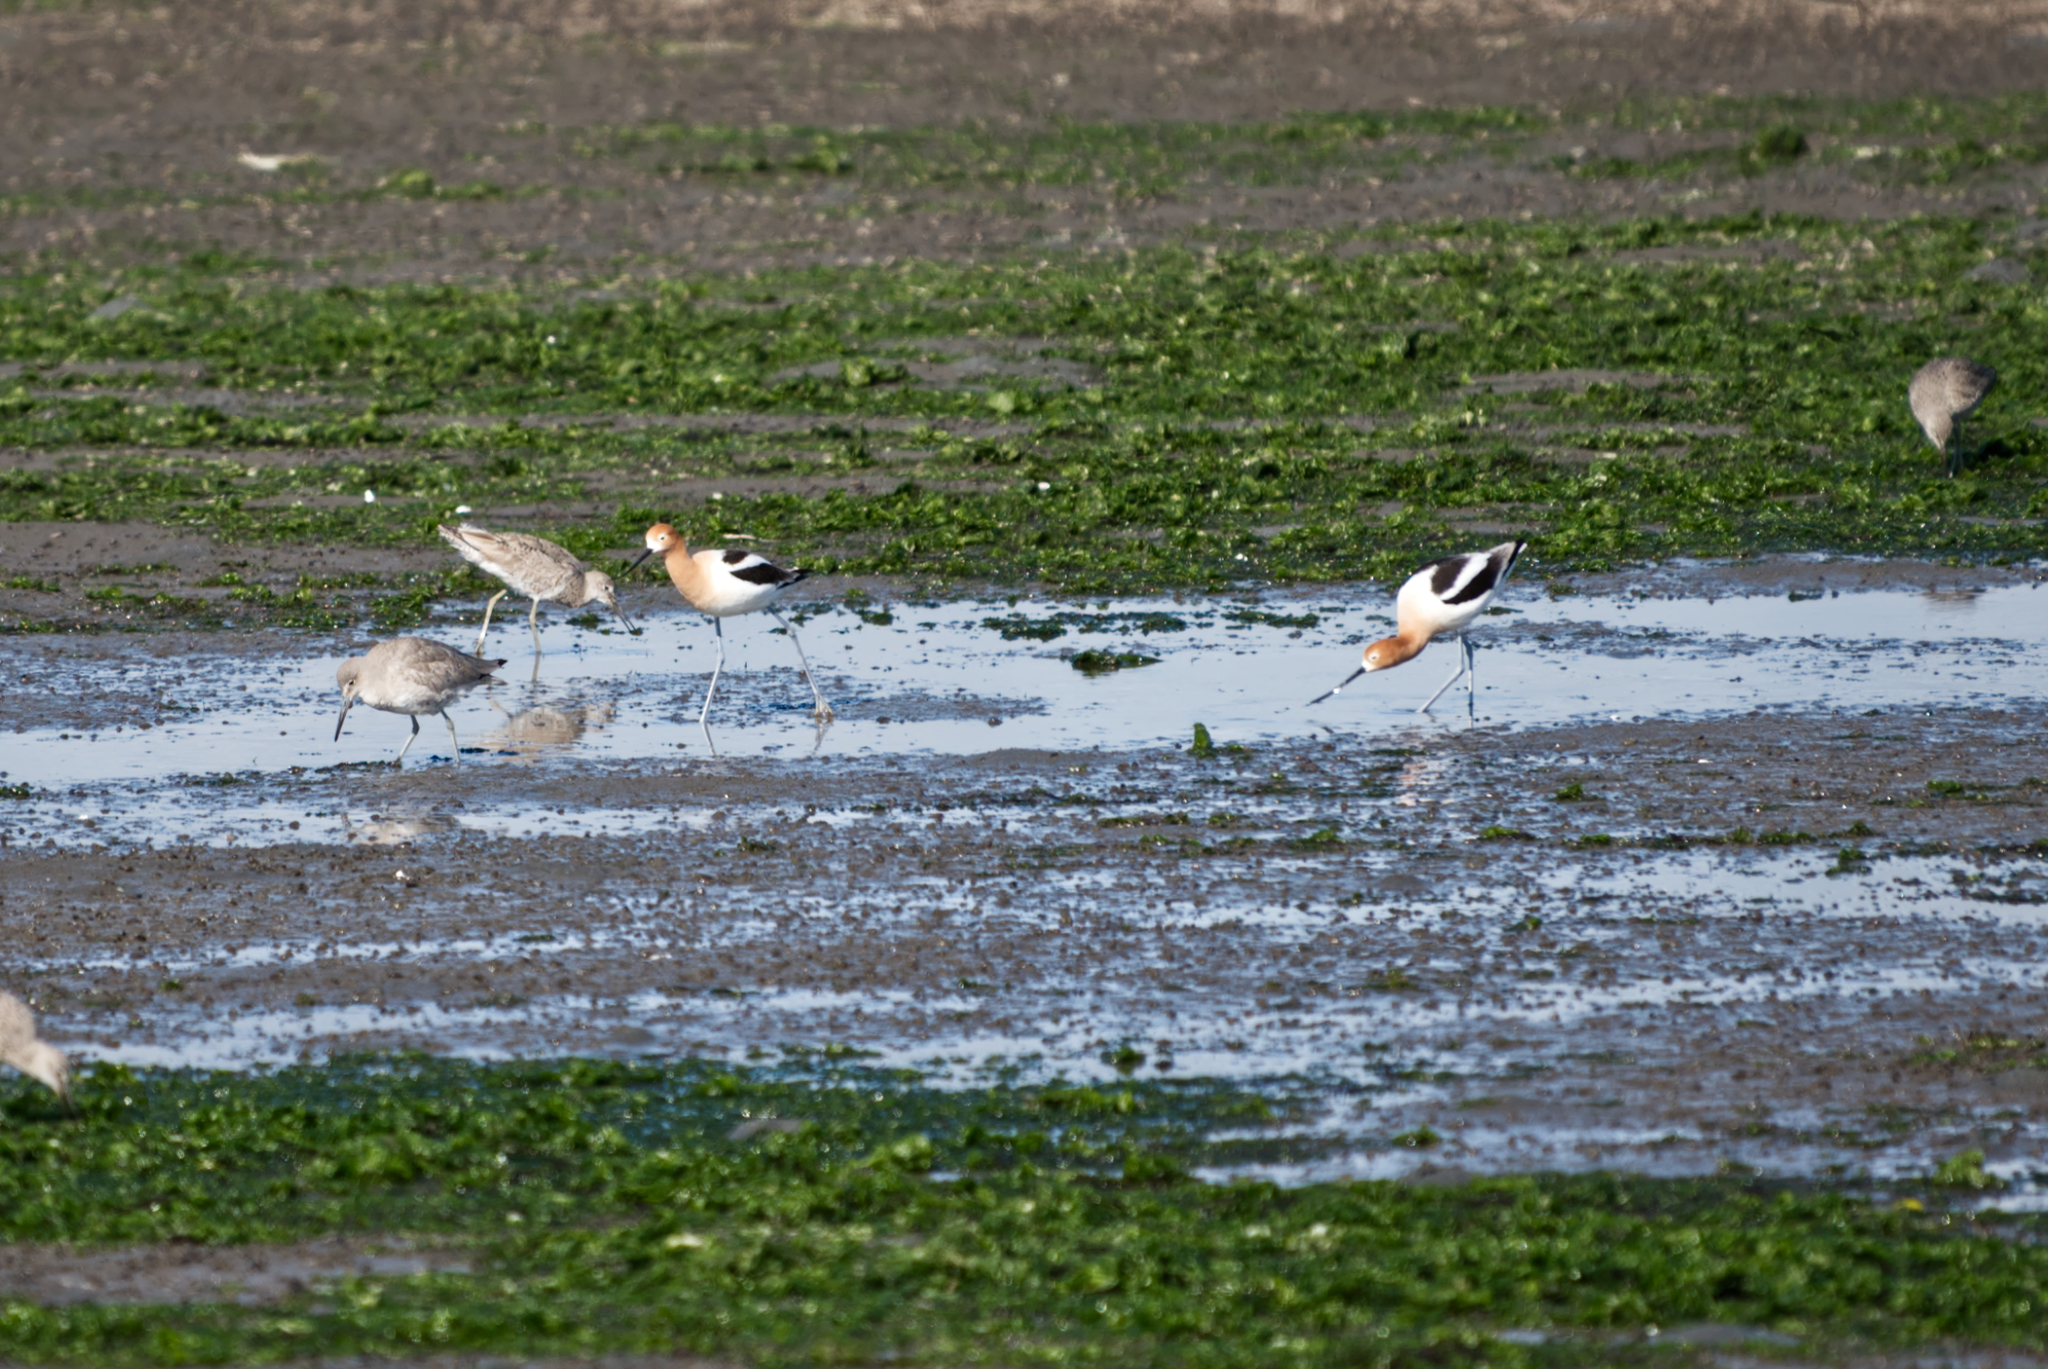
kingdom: Animalia
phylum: Chordata
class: Aves
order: Charadriiformes
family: Recurvirostridae
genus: Recurvirostra
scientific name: Recurvirostra americana
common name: American avocet
